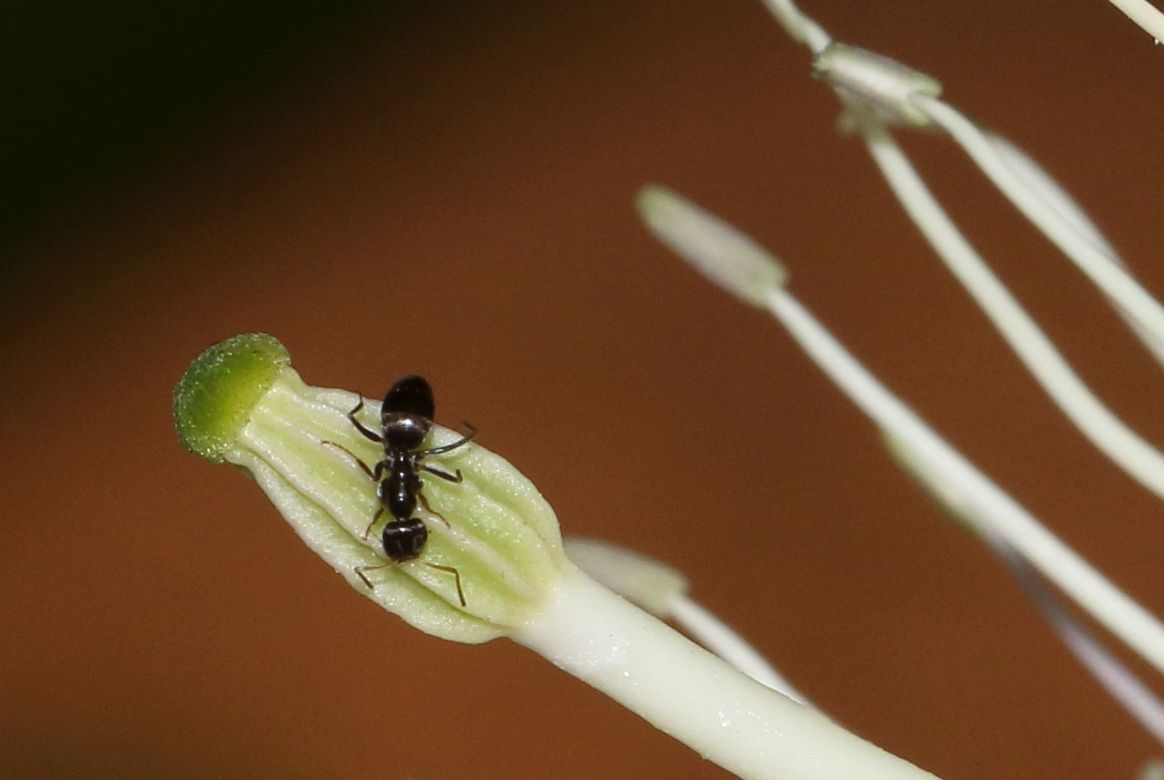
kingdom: Animalia
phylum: Arthropoda
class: Insecta
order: Hymenoptera
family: Formicidae
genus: Tapinoma
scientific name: Tapinoma pallipes
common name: Ant
